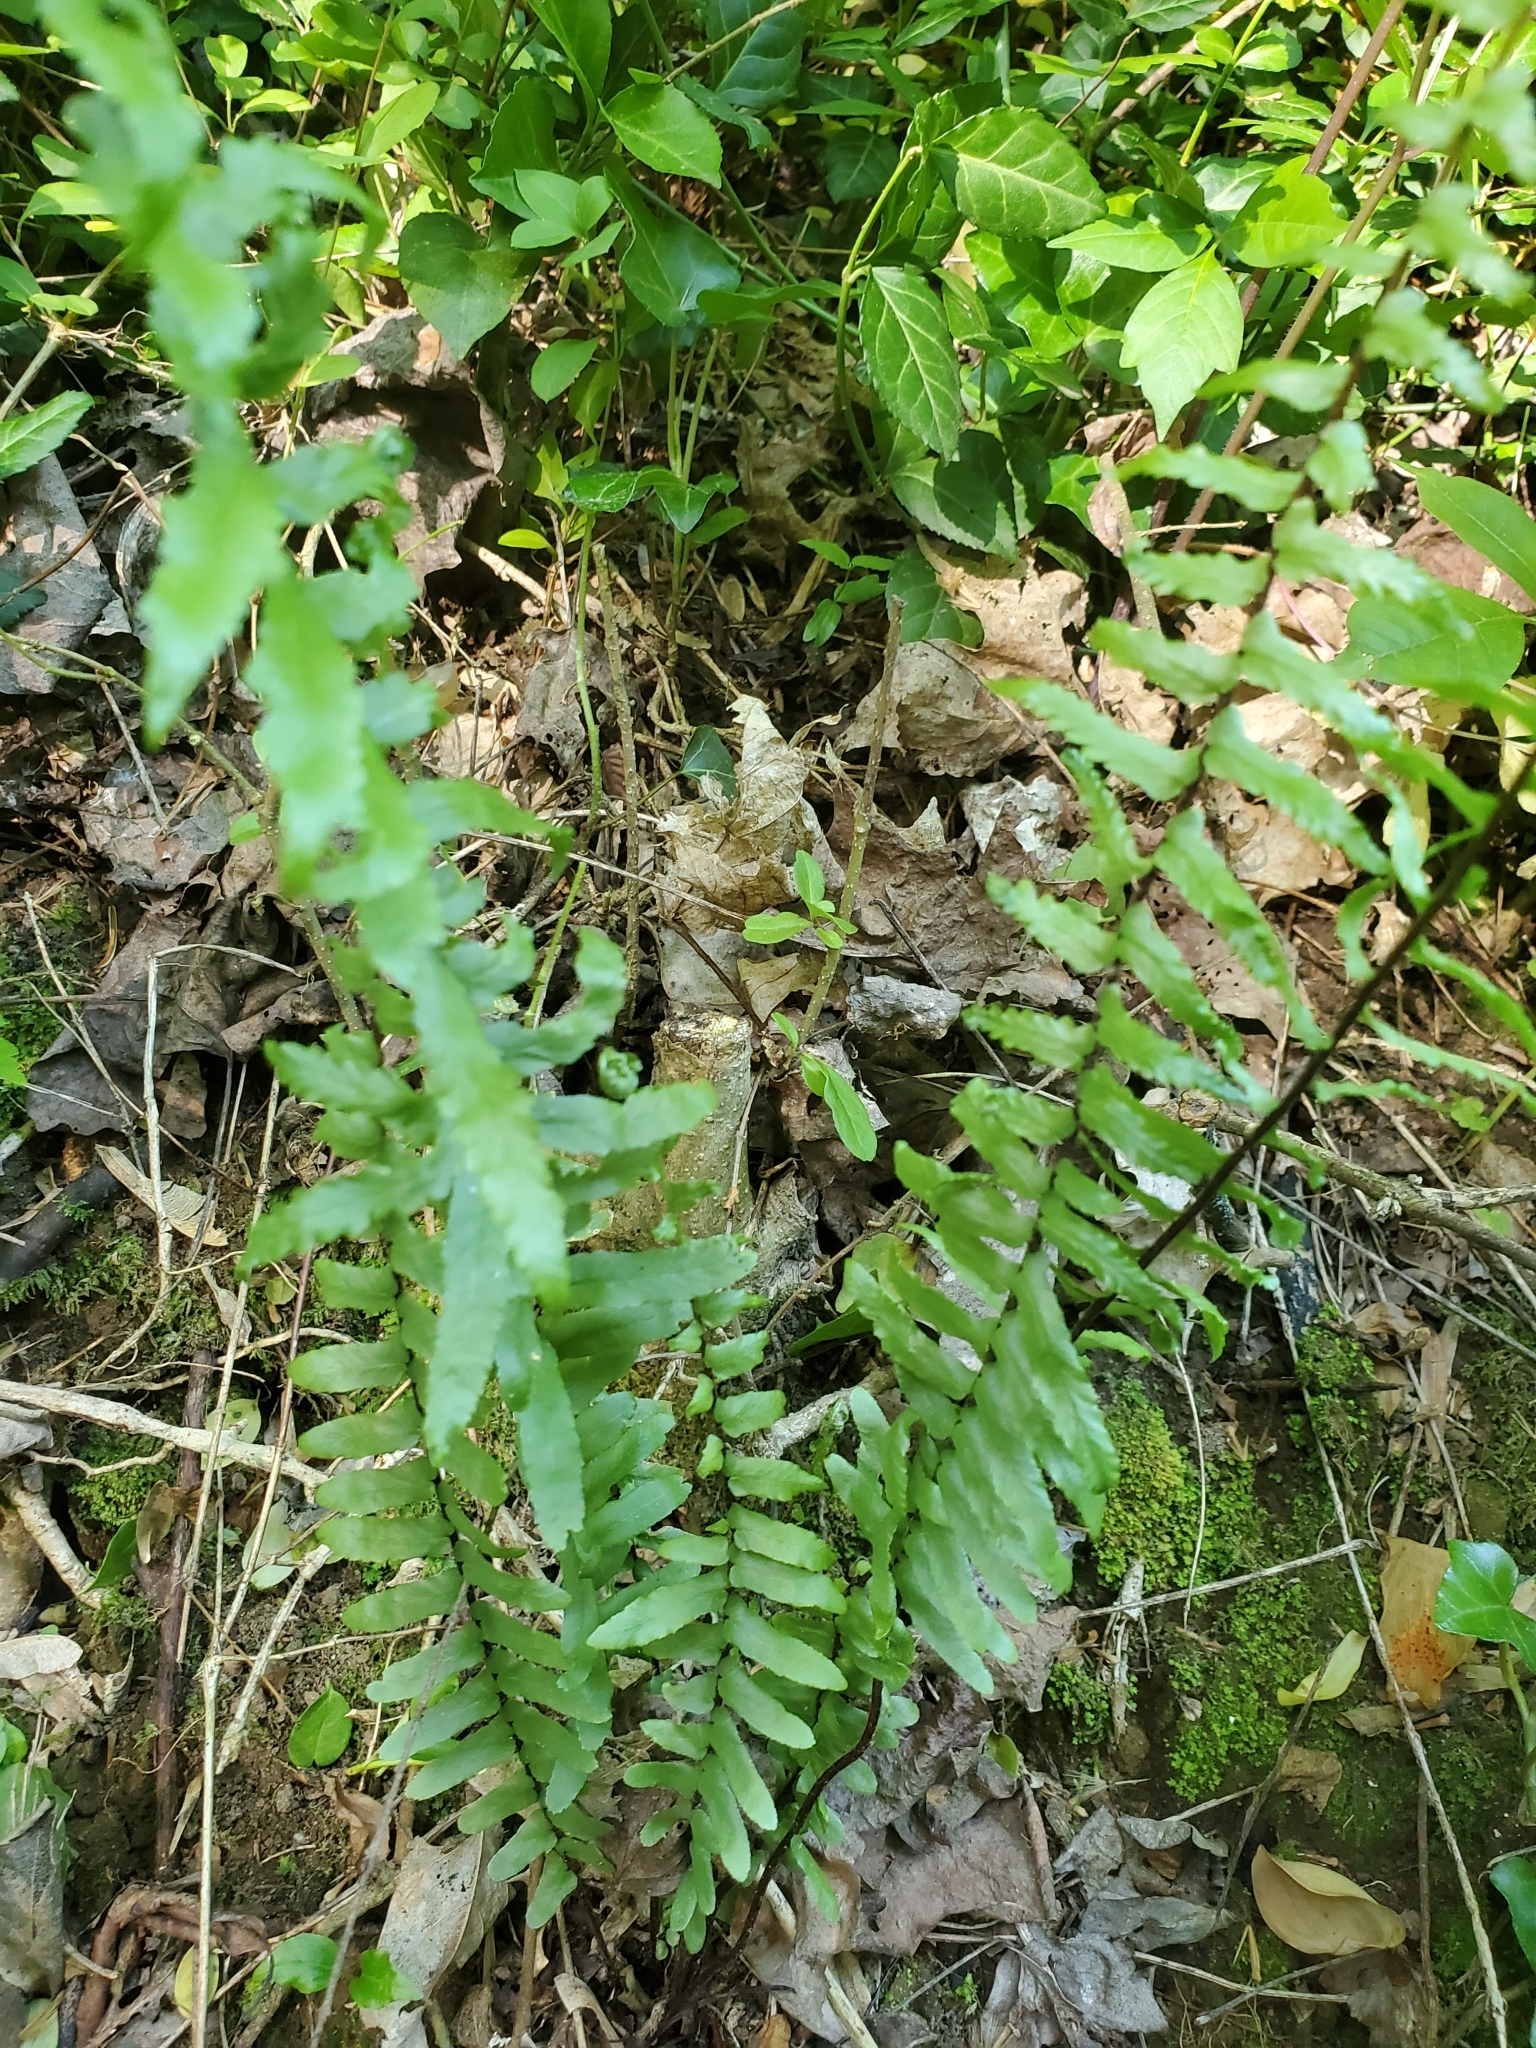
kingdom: Plantae
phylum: Tracheophyta
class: Polypodiopsida
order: Polypodiales
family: Aspleniaceae
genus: Asplenium
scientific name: Asplenium platyneuron
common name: Ebony spleenwort
